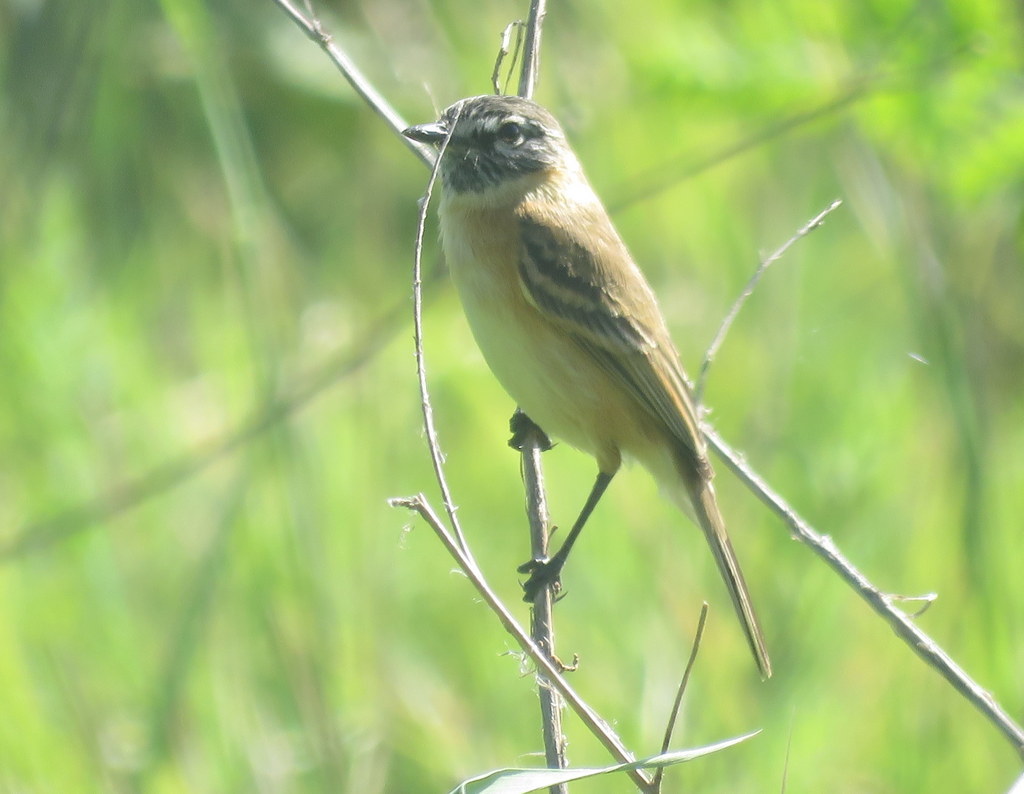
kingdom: Animalia
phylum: Chordata
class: Aves
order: Passeriformes
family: Tyrannidae
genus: Polystictus
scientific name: Polystictus pectoralis
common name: Bearded tachuri
